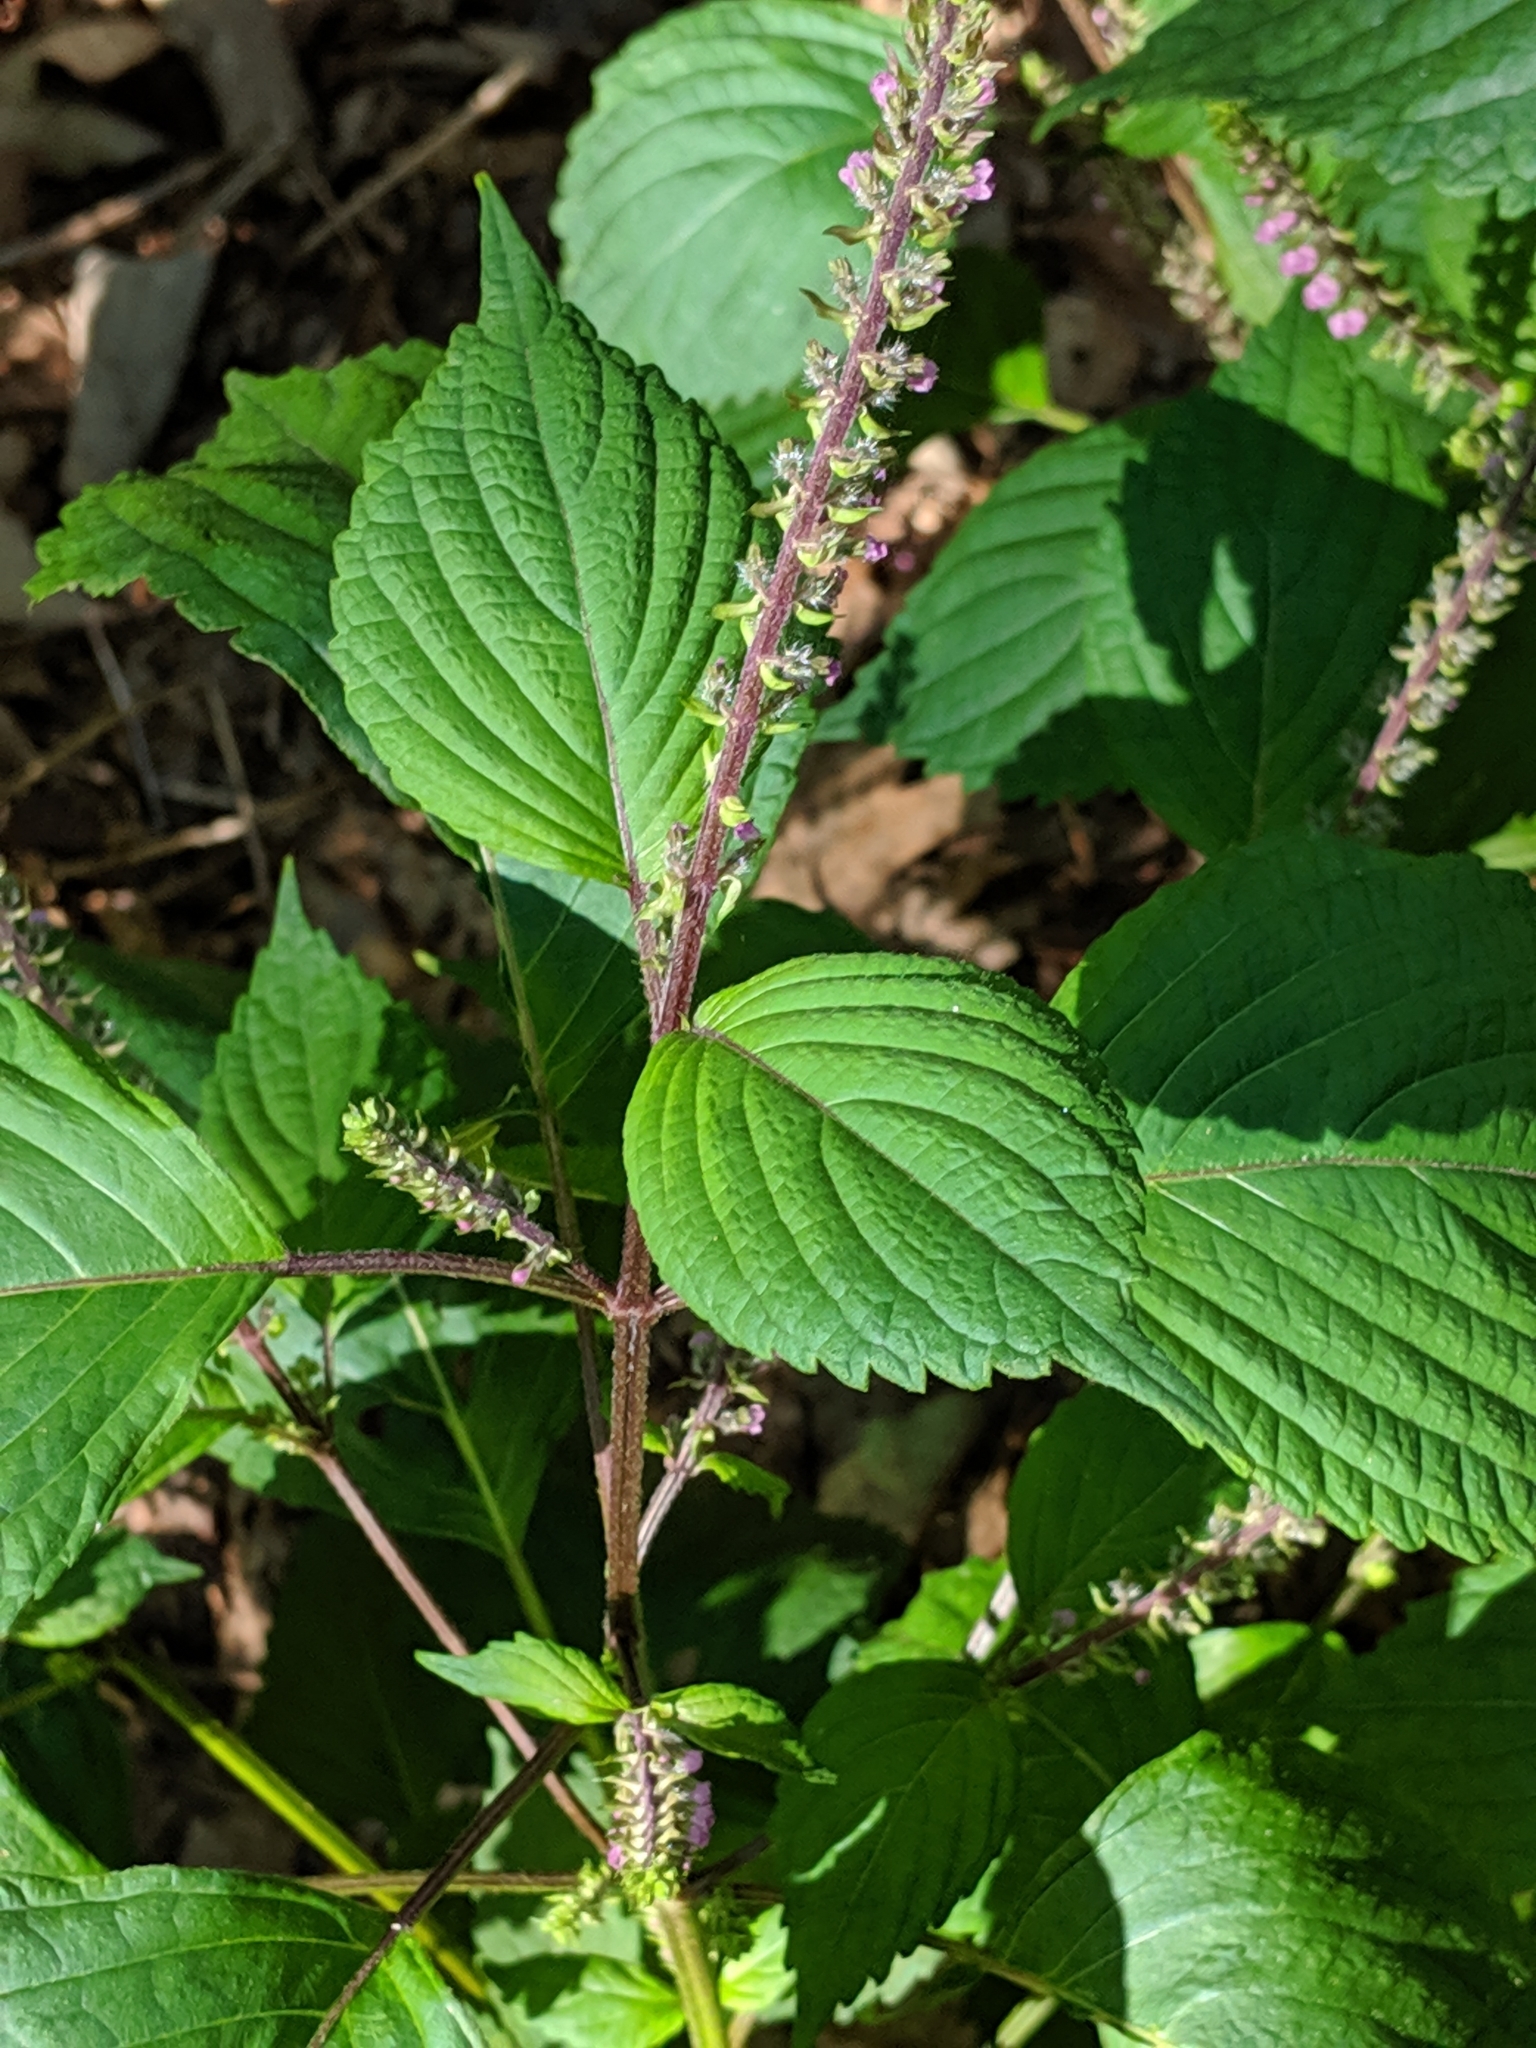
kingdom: Plantae
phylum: Tracheophyta
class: Magnoliopsida
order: Lamiales
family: Lamiaceae
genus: Perilla
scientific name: Perilla frutescens
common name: Perilla
